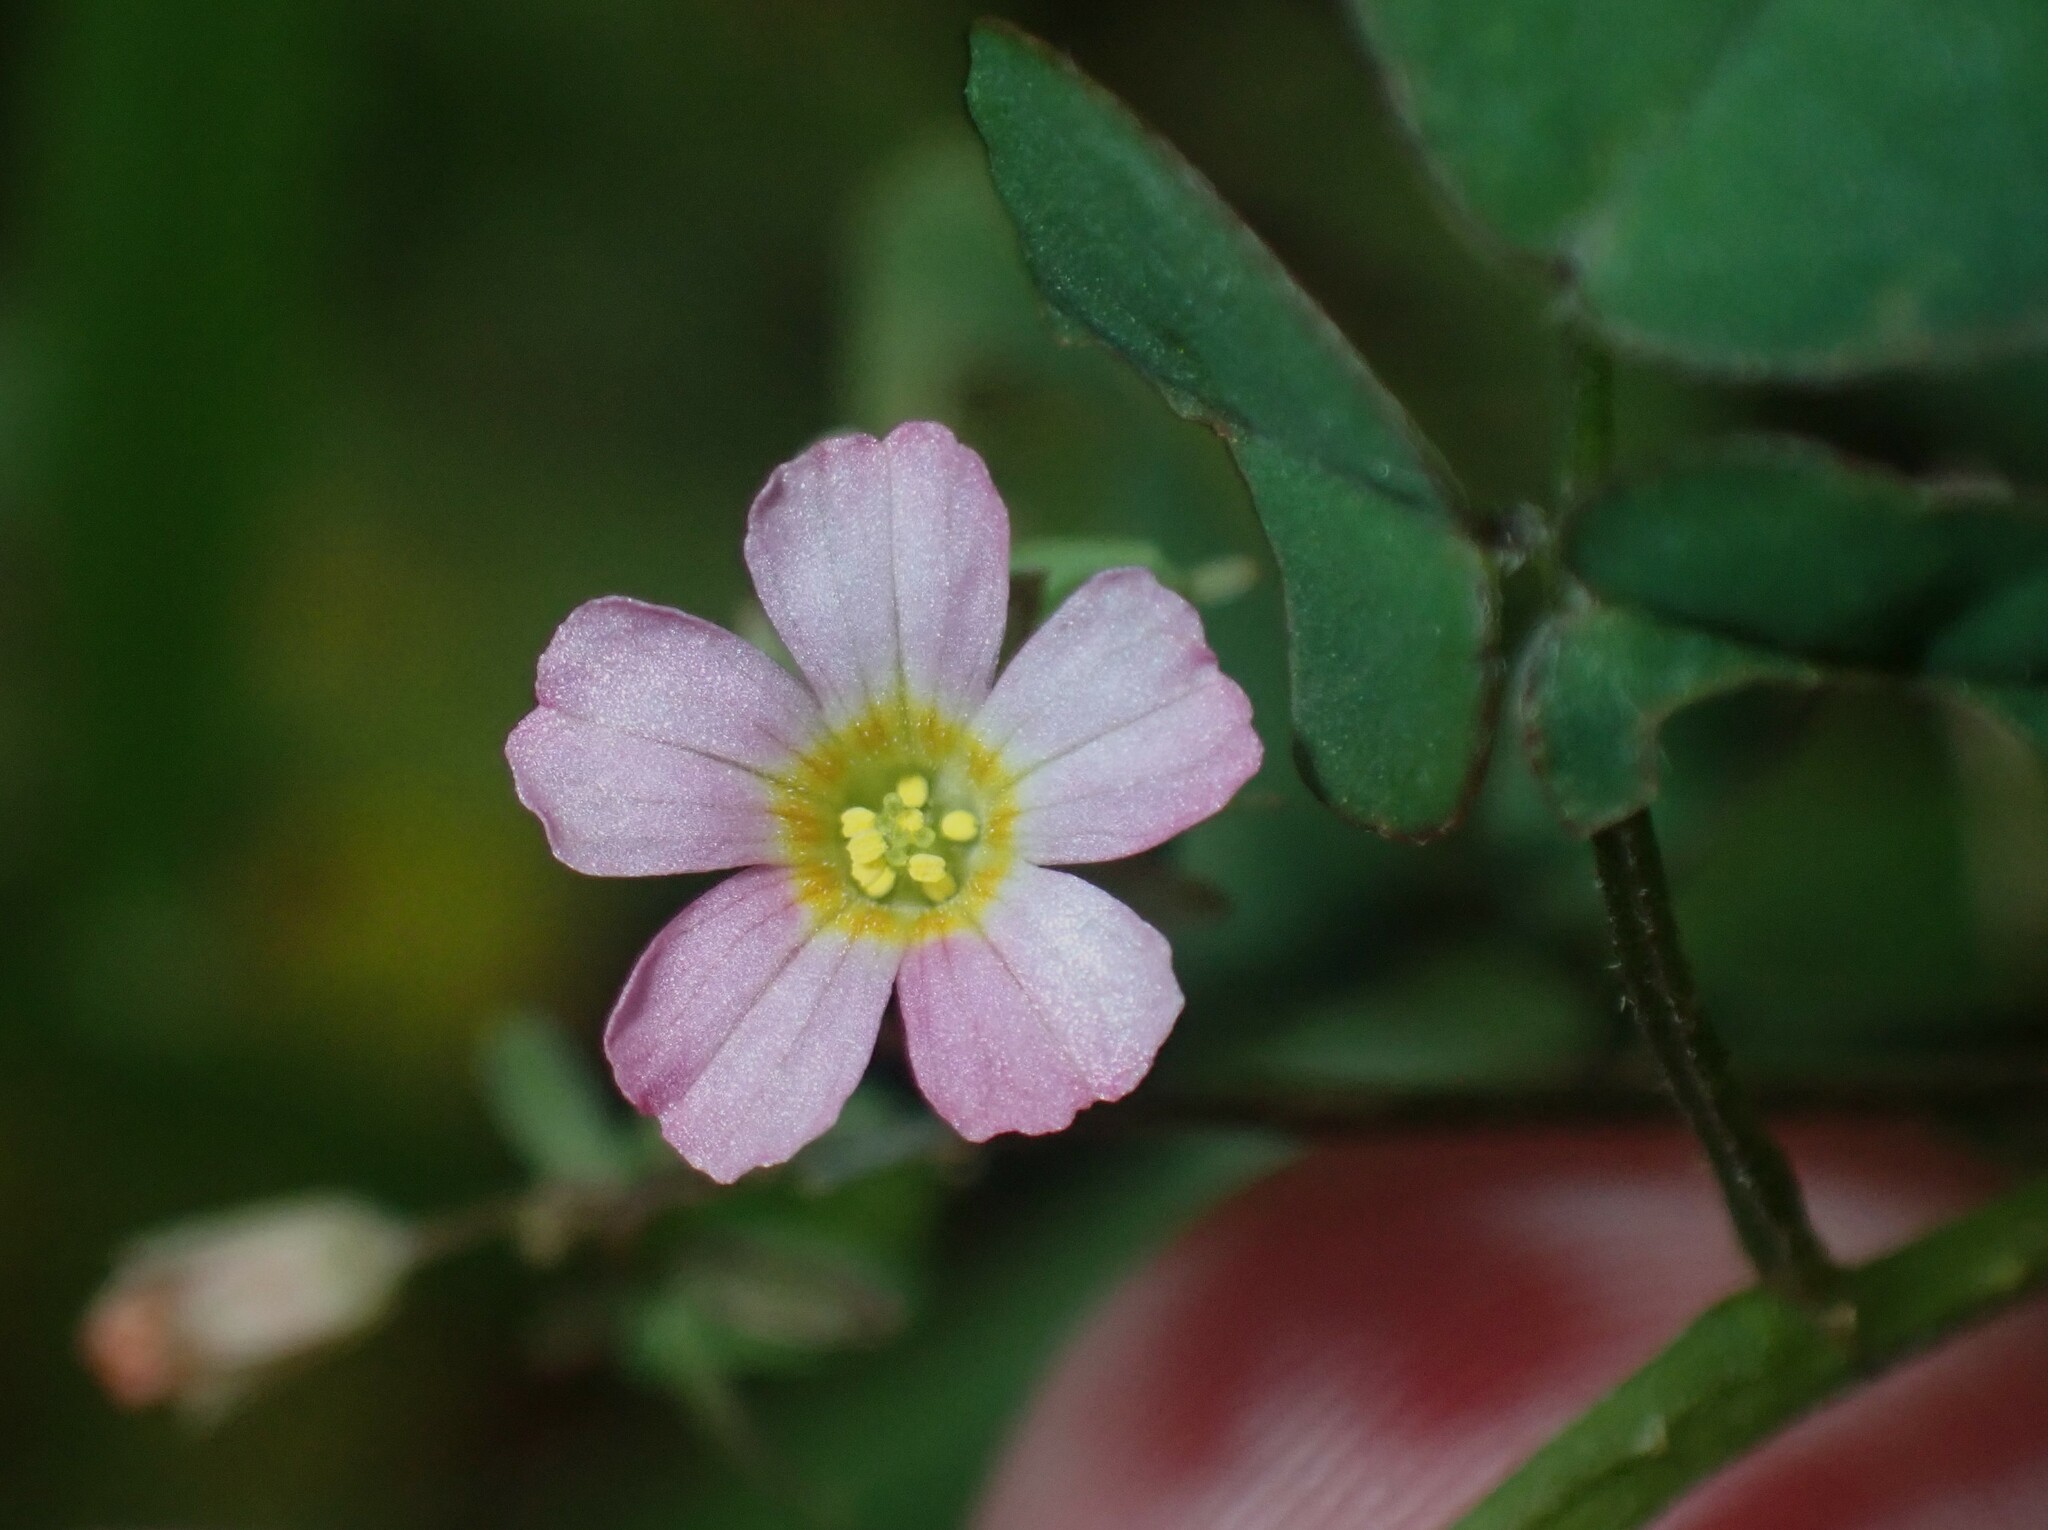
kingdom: Plantae
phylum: Tracheophyta
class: Magnoliopsida
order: Oxalidales
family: Oxalidaceae
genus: Oxalis
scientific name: Oxalis barrelieri
